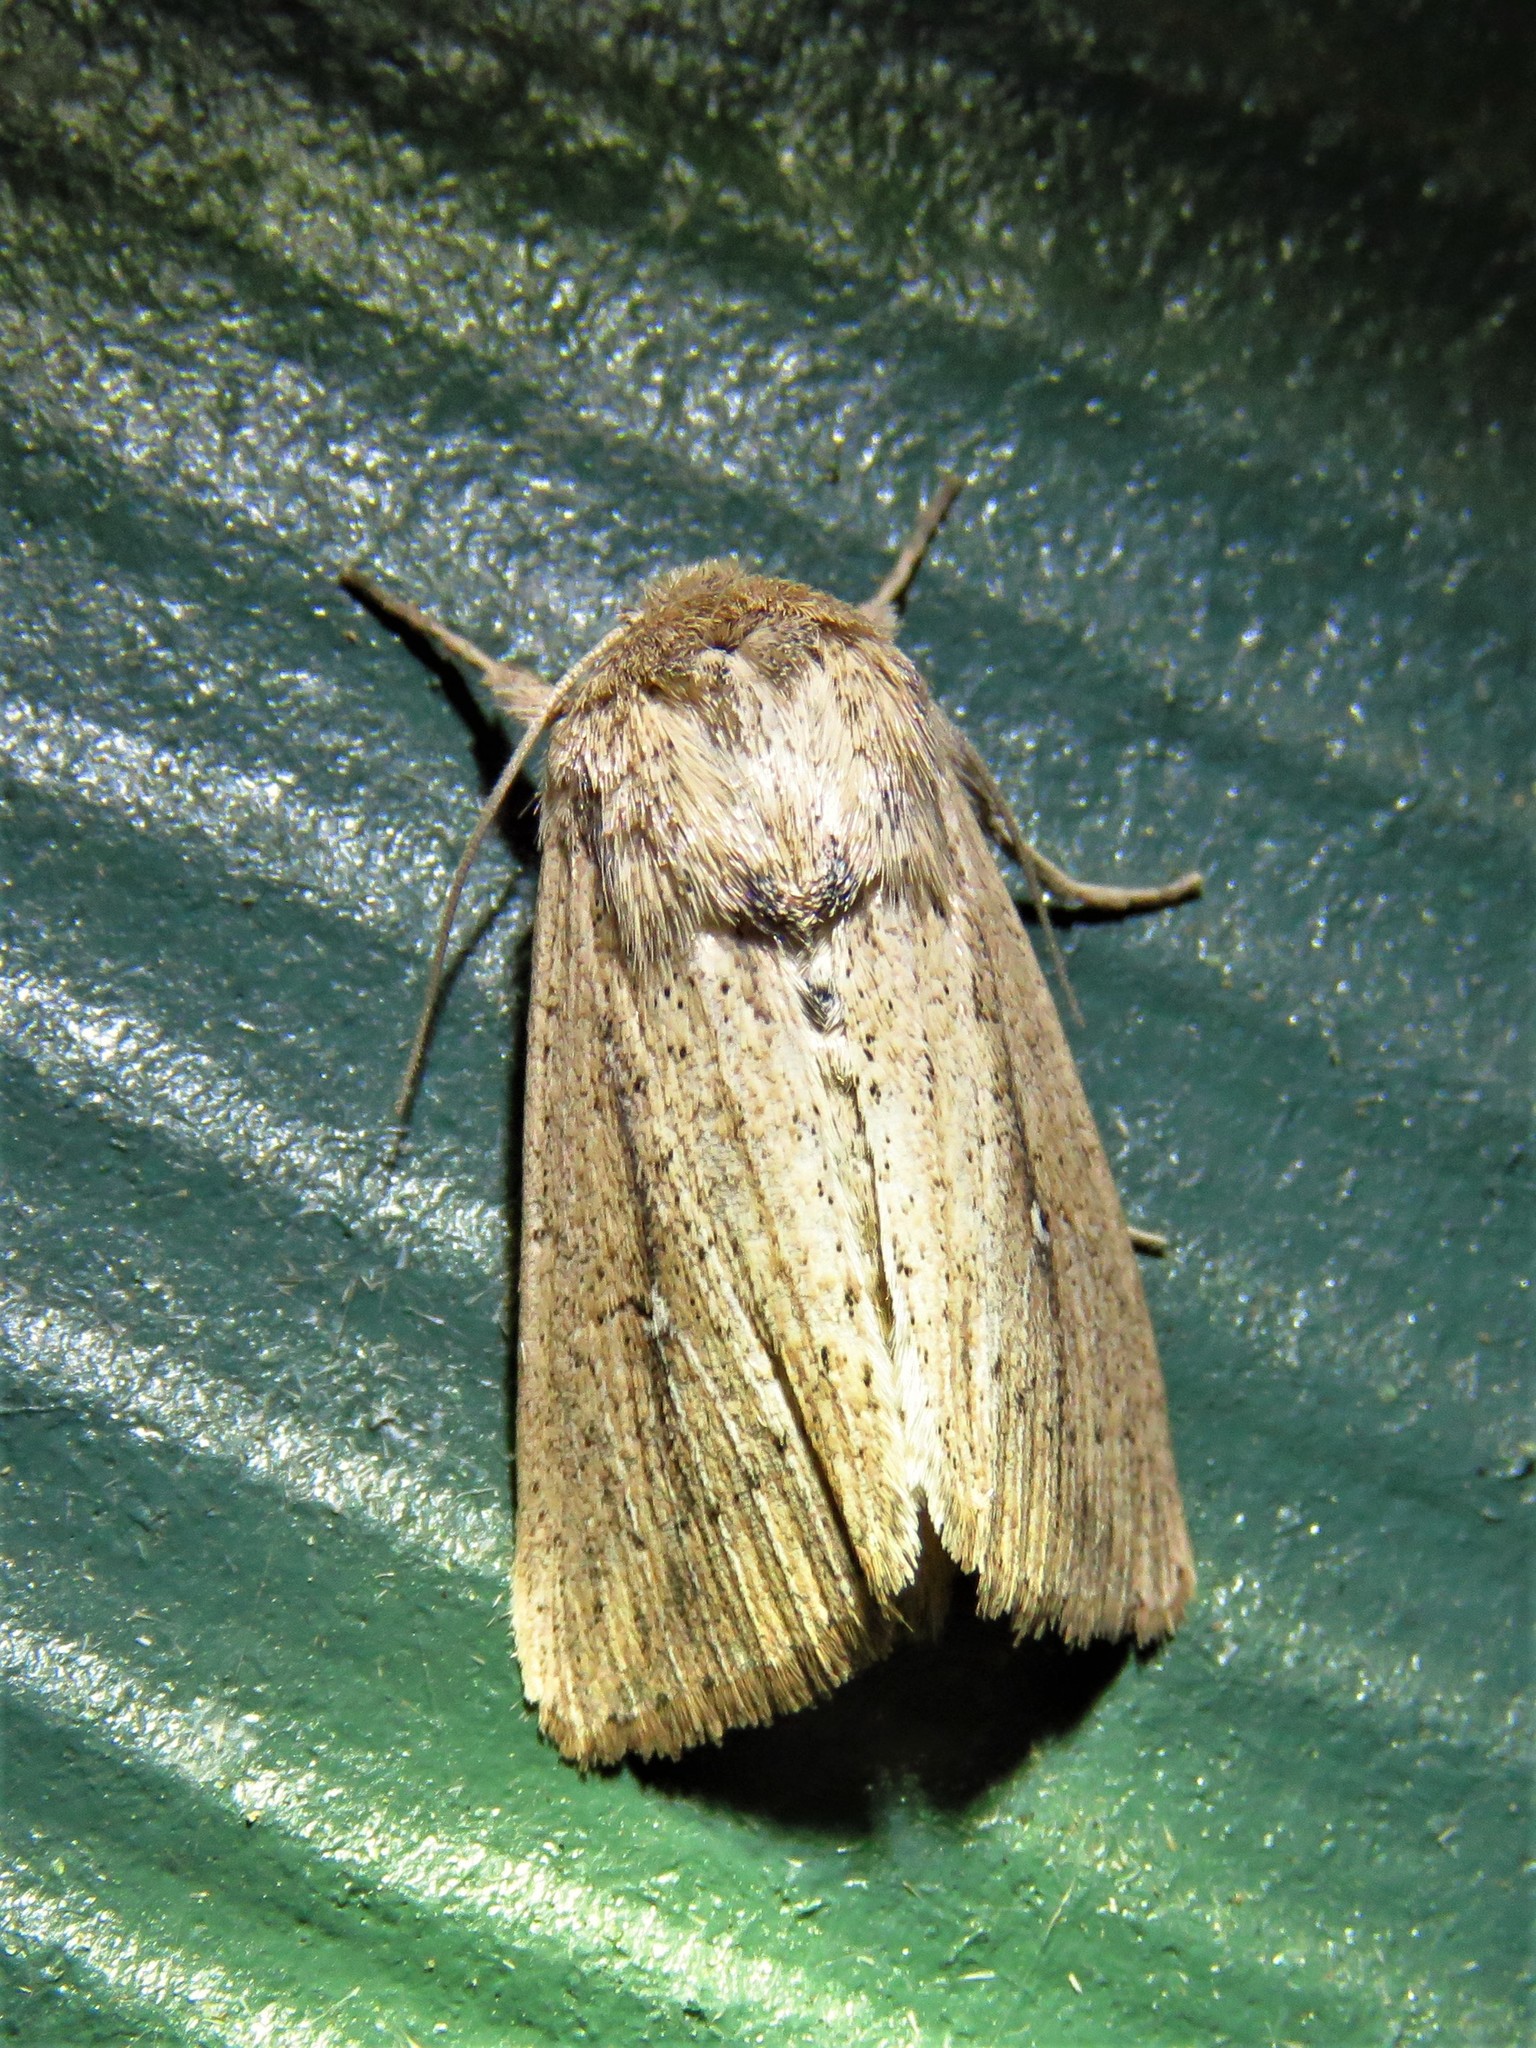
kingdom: Animalia
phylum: Arthropoda
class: Insecta
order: Lepidoptera
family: Noctuidae
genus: Leucania
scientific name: Leucania incognita
